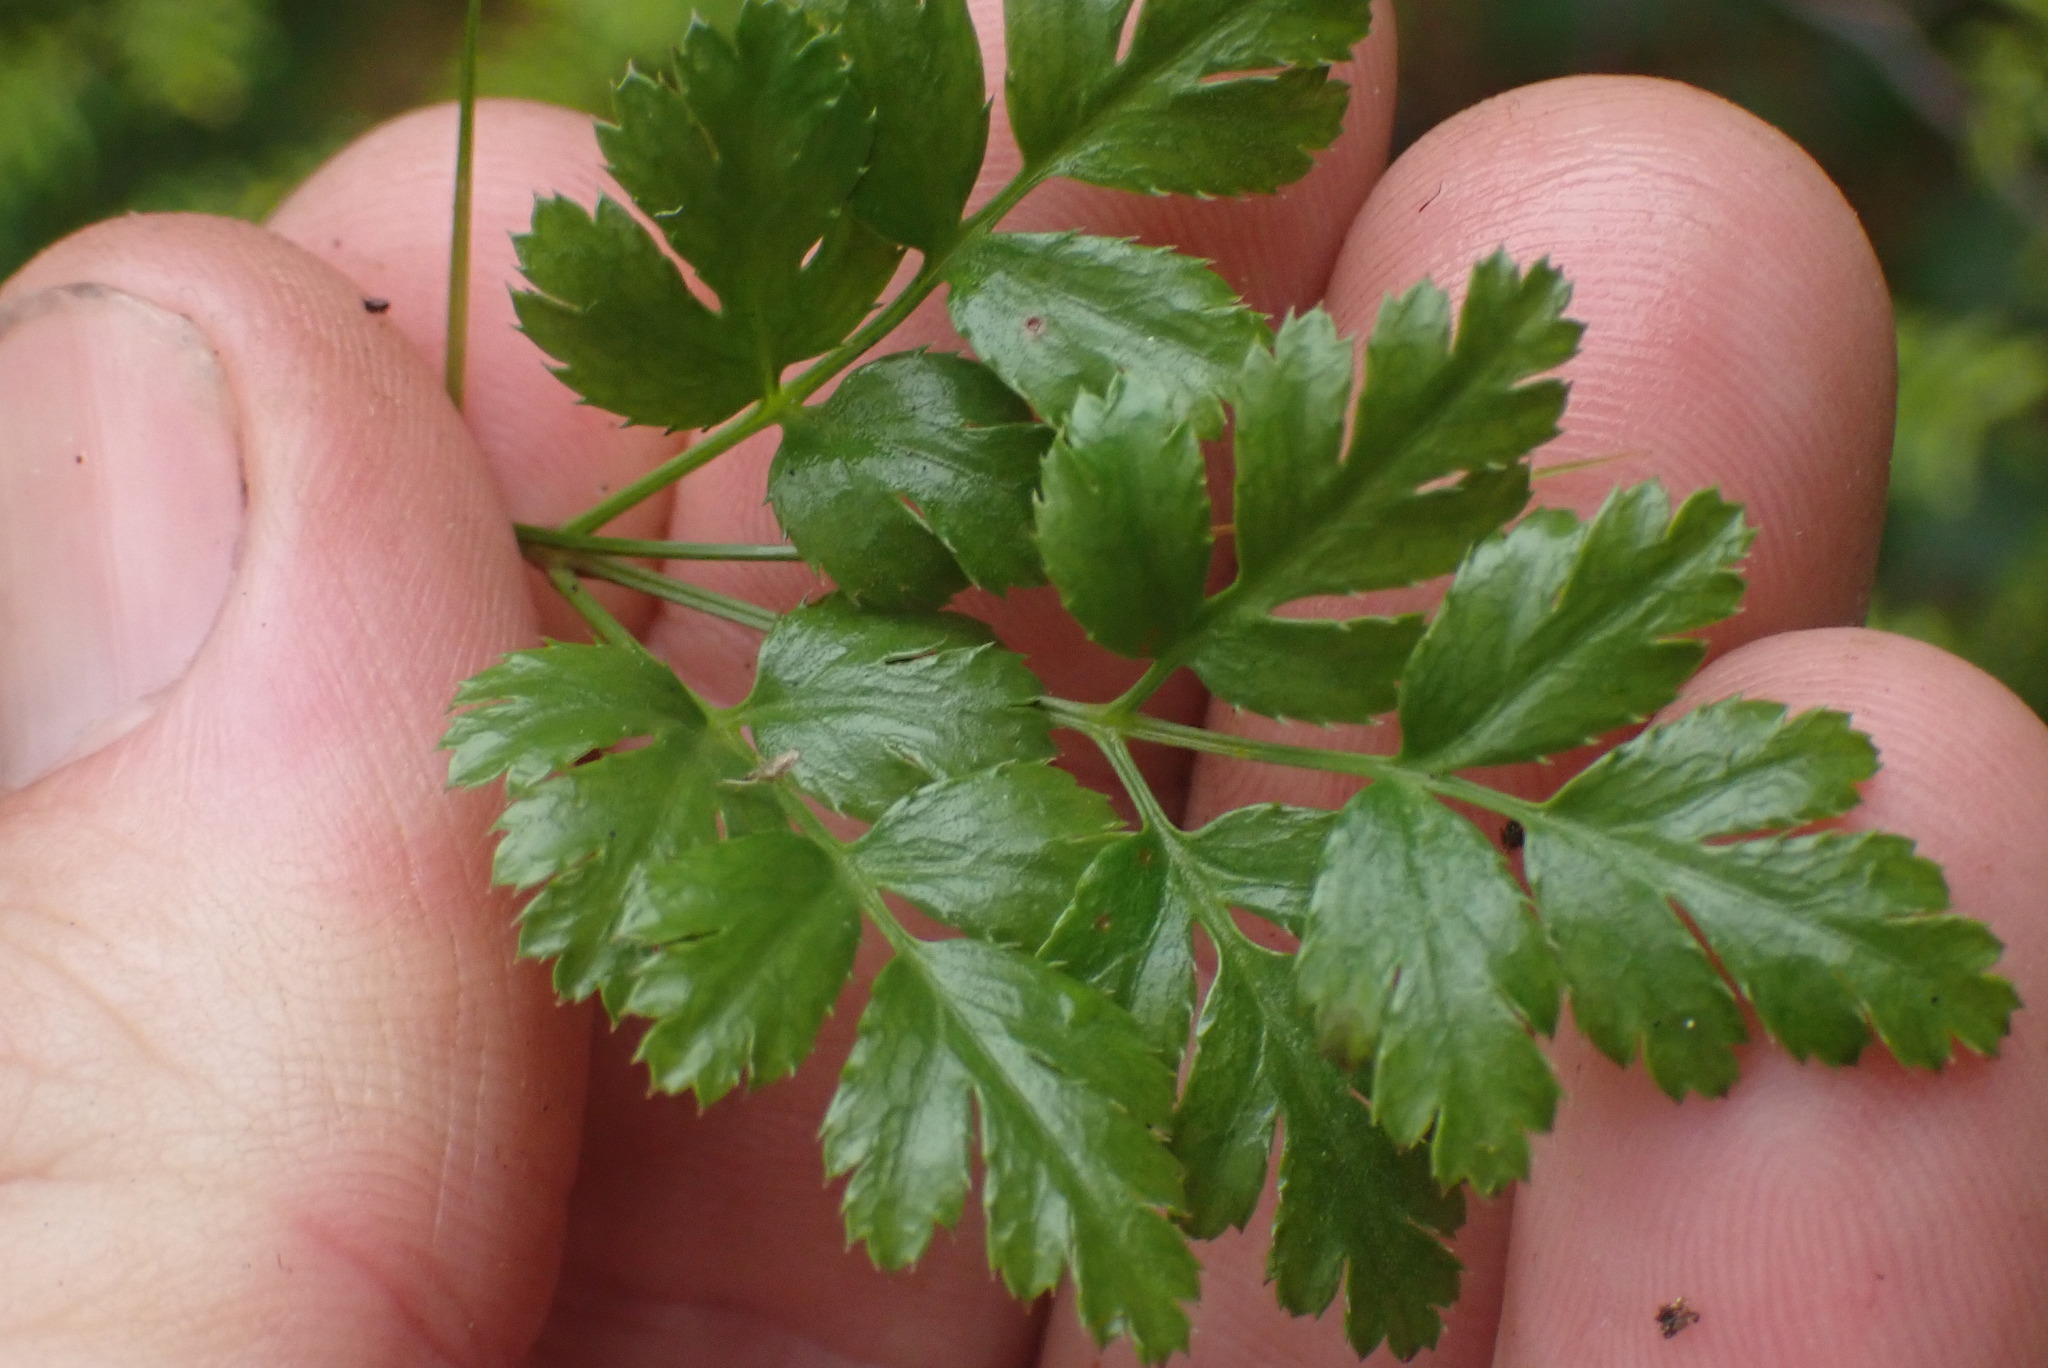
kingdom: Plantae
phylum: Tracheophyta
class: Magnoliopsida
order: Ranunculales
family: Ranunculaceae
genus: Coptis
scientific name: Coptis aspleniifolia
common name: Fern-leaved goldthread
